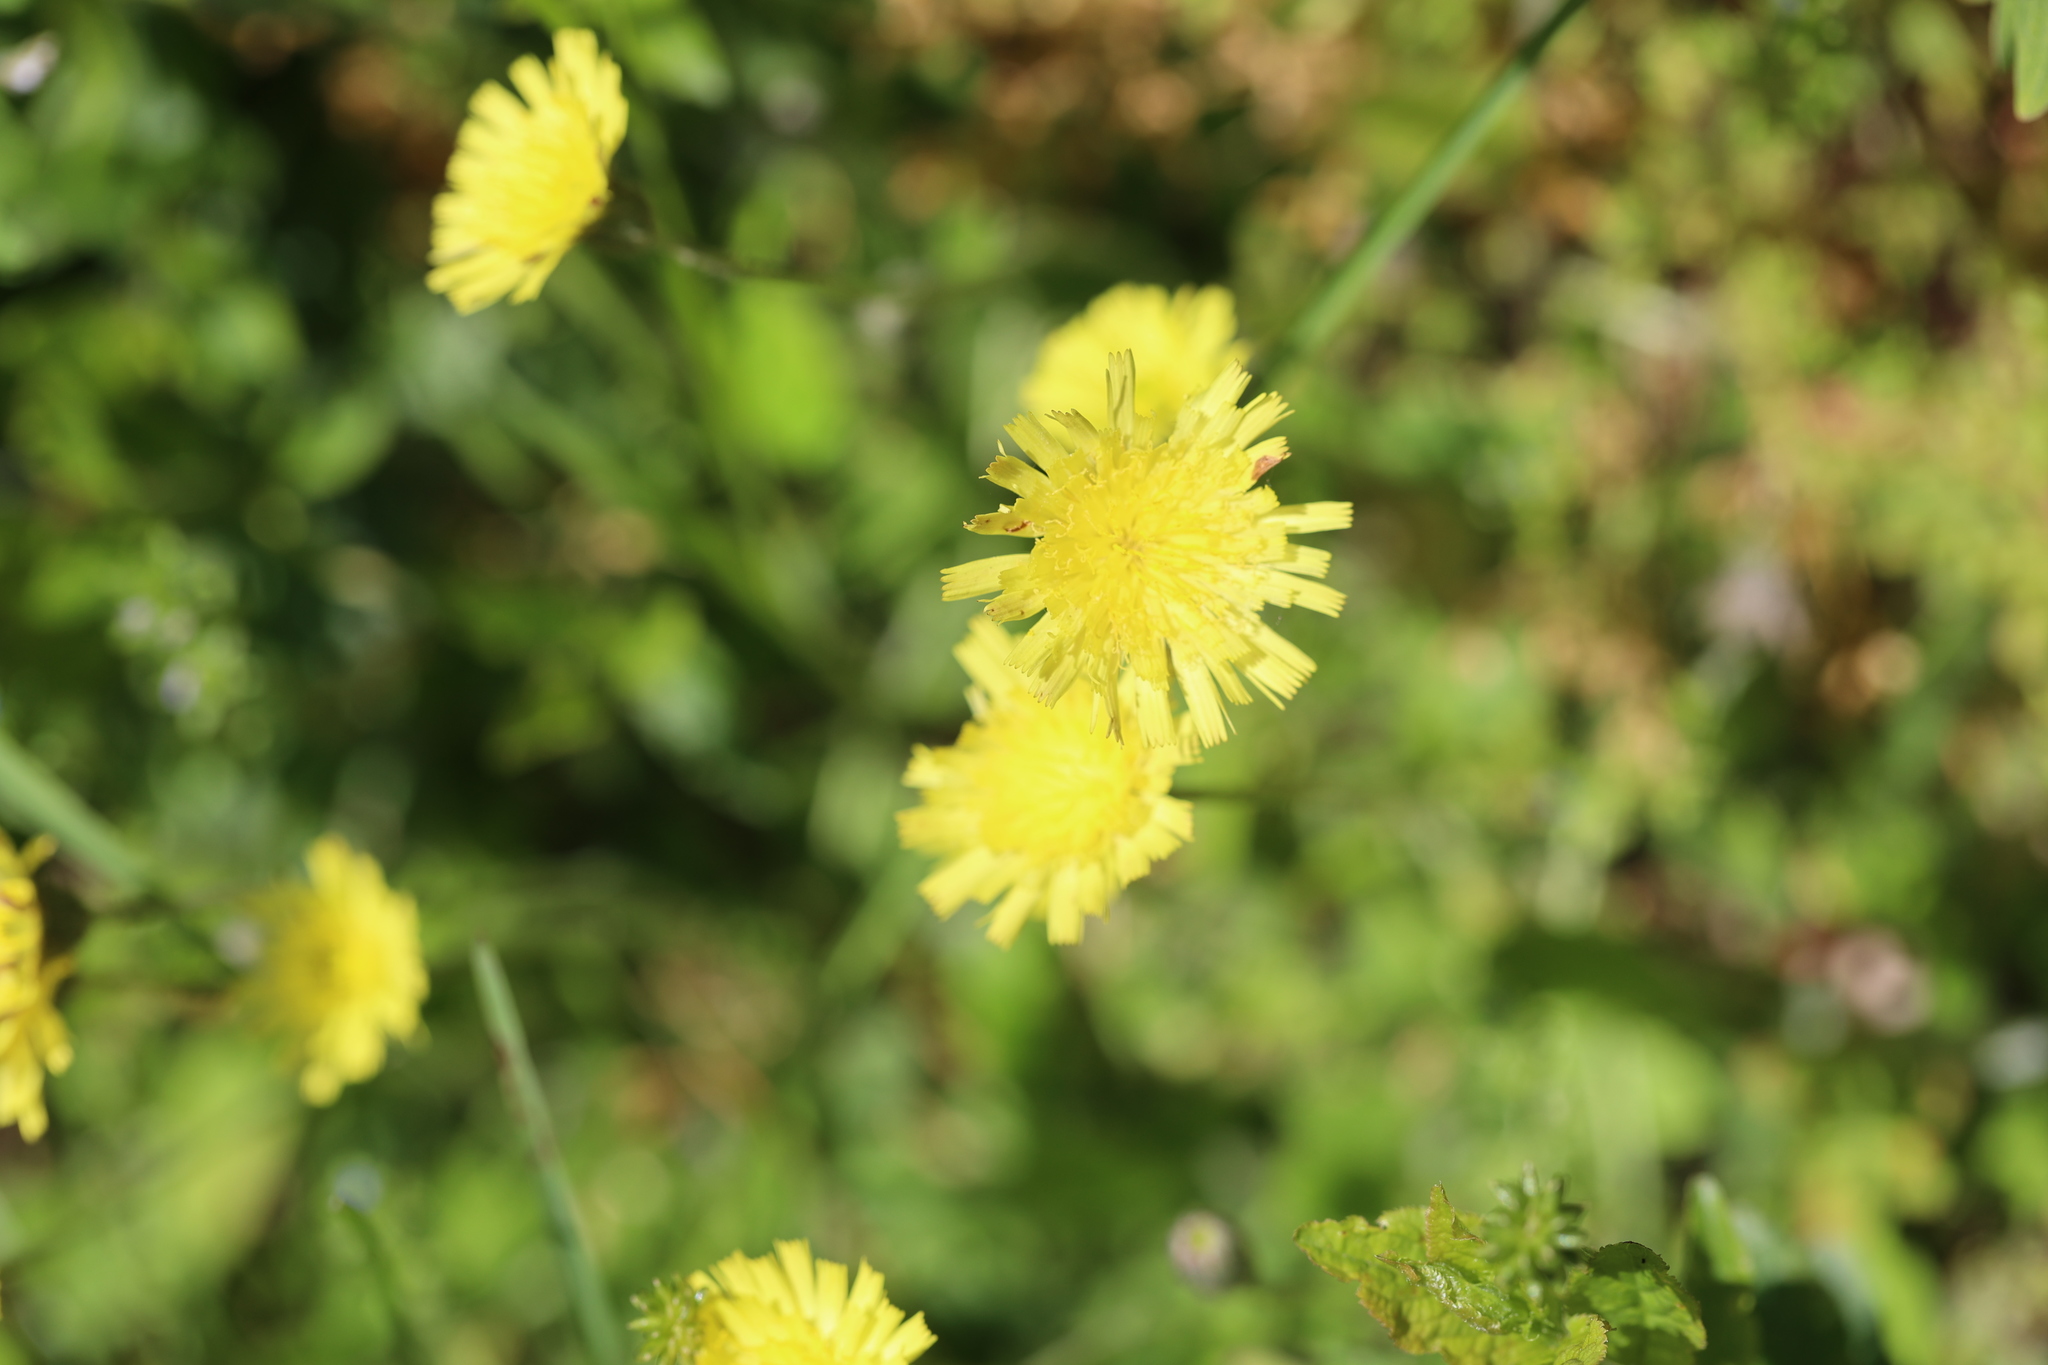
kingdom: Plantae
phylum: Tracheophyta
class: Magnoliopsida
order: Asterales
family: Asteraceae
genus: Pilosella
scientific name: Pilosella officinarum
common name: Mouse-ear hawkweed
